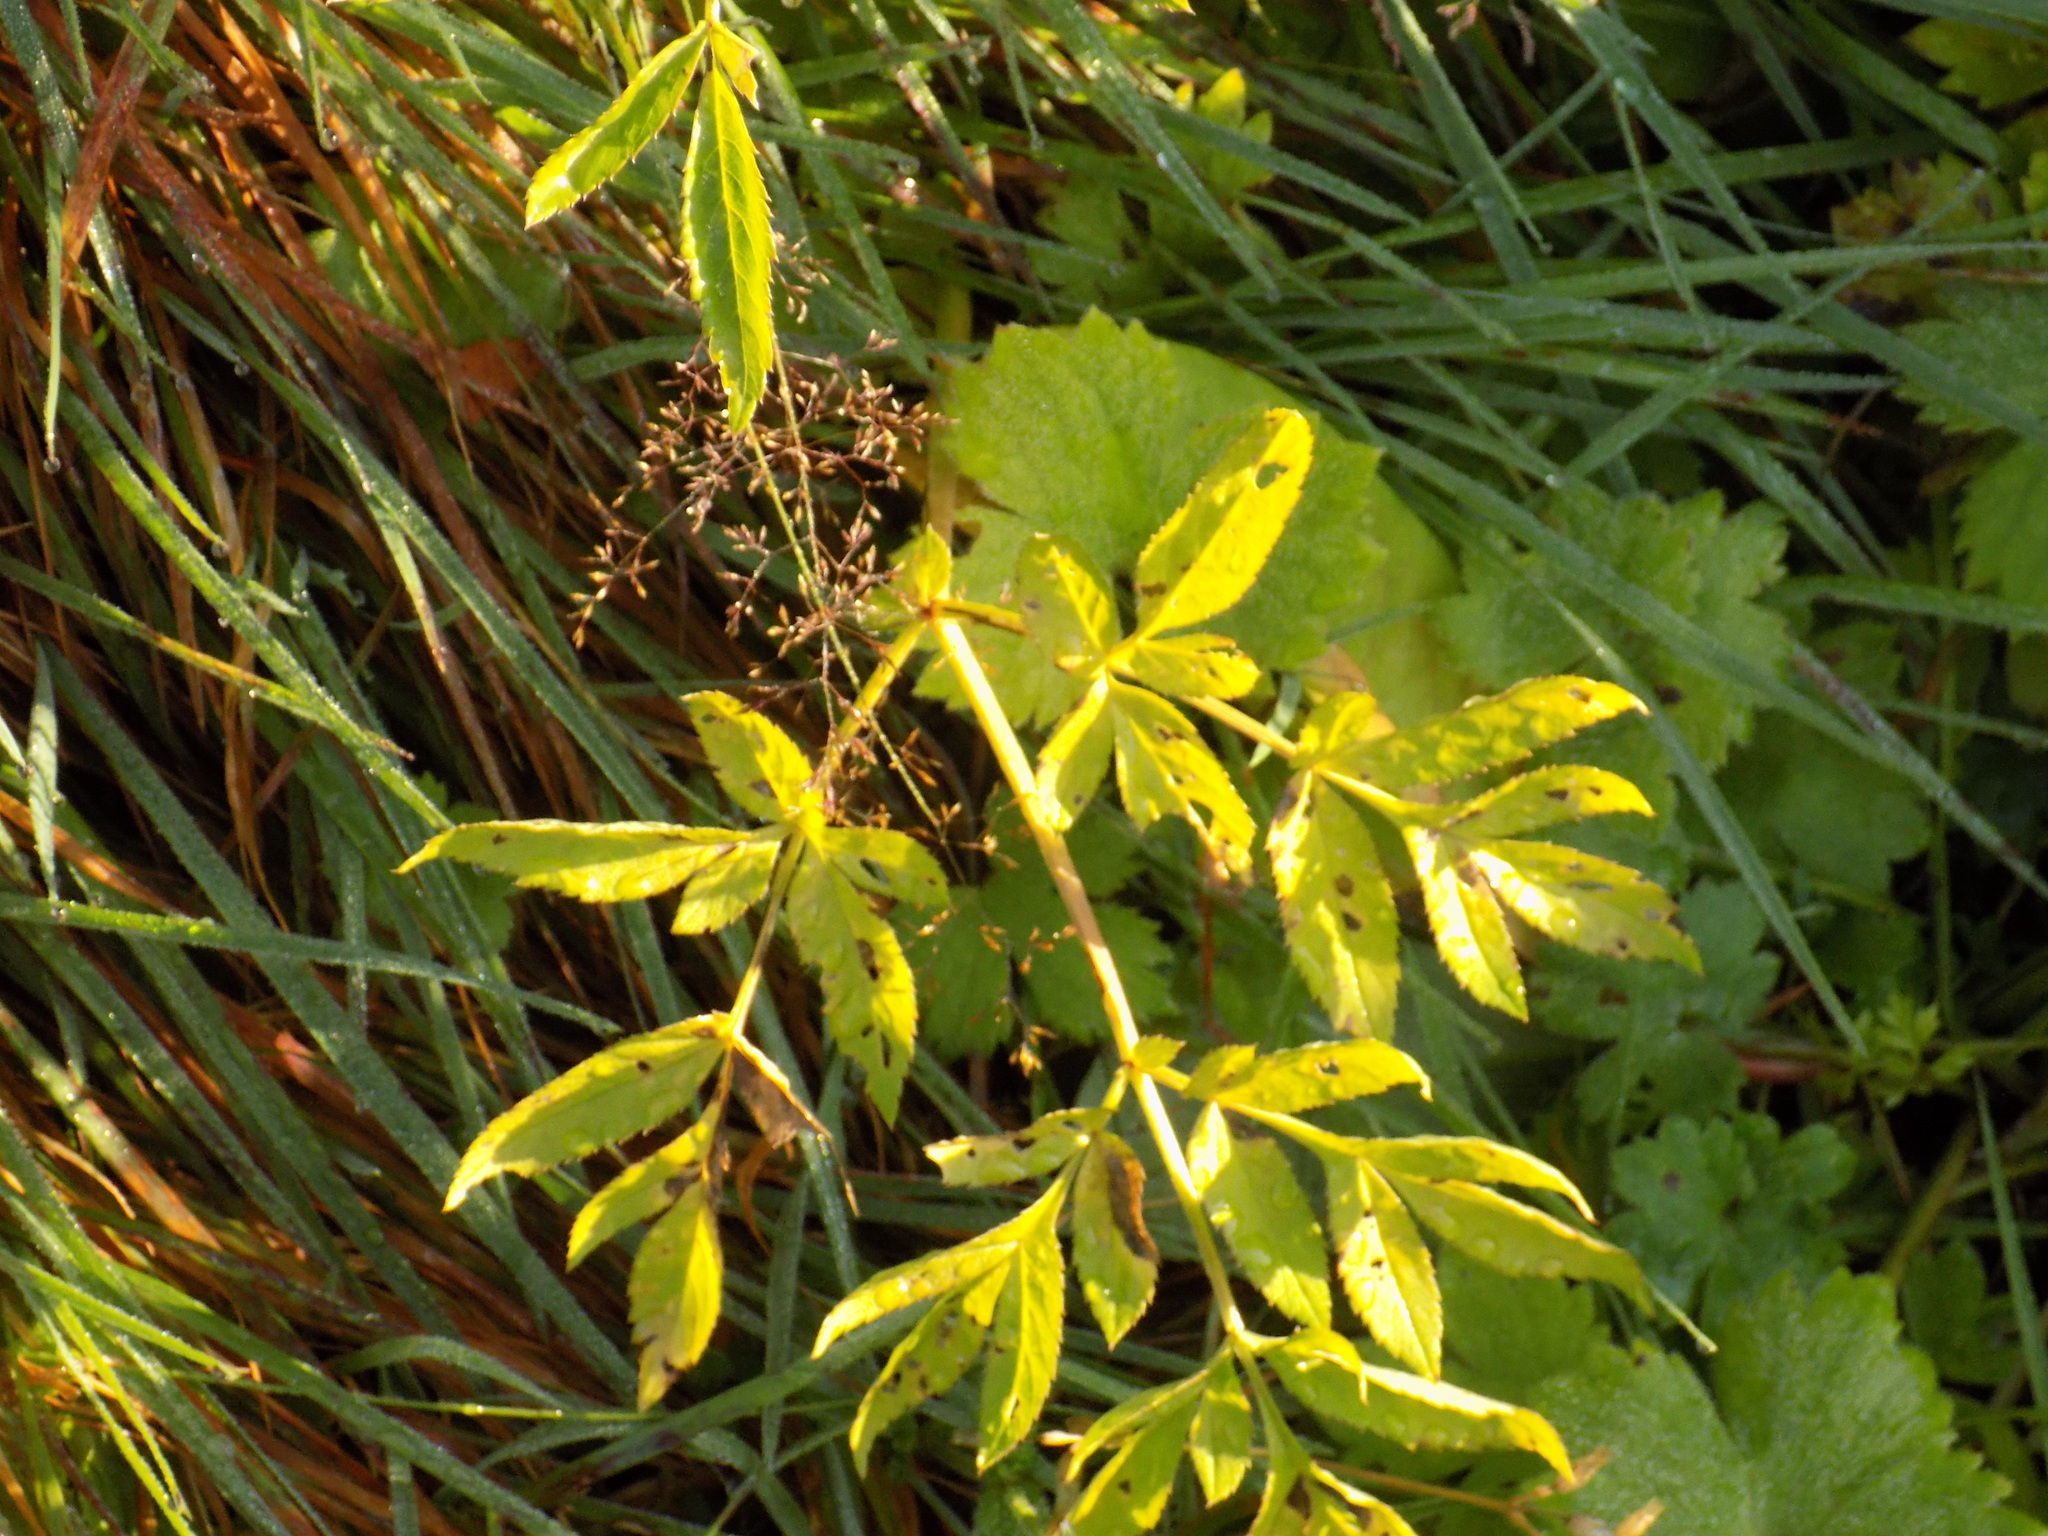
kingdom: Plantae
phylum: Tracheophyta
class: Magnoliopsida
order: Apiales
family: Apiaceae
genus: Angelica
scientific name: Angelica sylvestris
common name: Wild angelica
